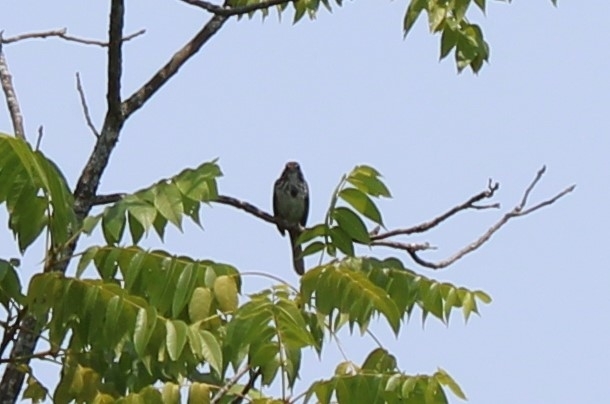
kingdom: Animalia
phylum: Chordata
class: Aves
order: Passeriformes
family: Passerellidae
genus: Melospiza
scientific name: Melospiza melodia
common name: Song sparrow
